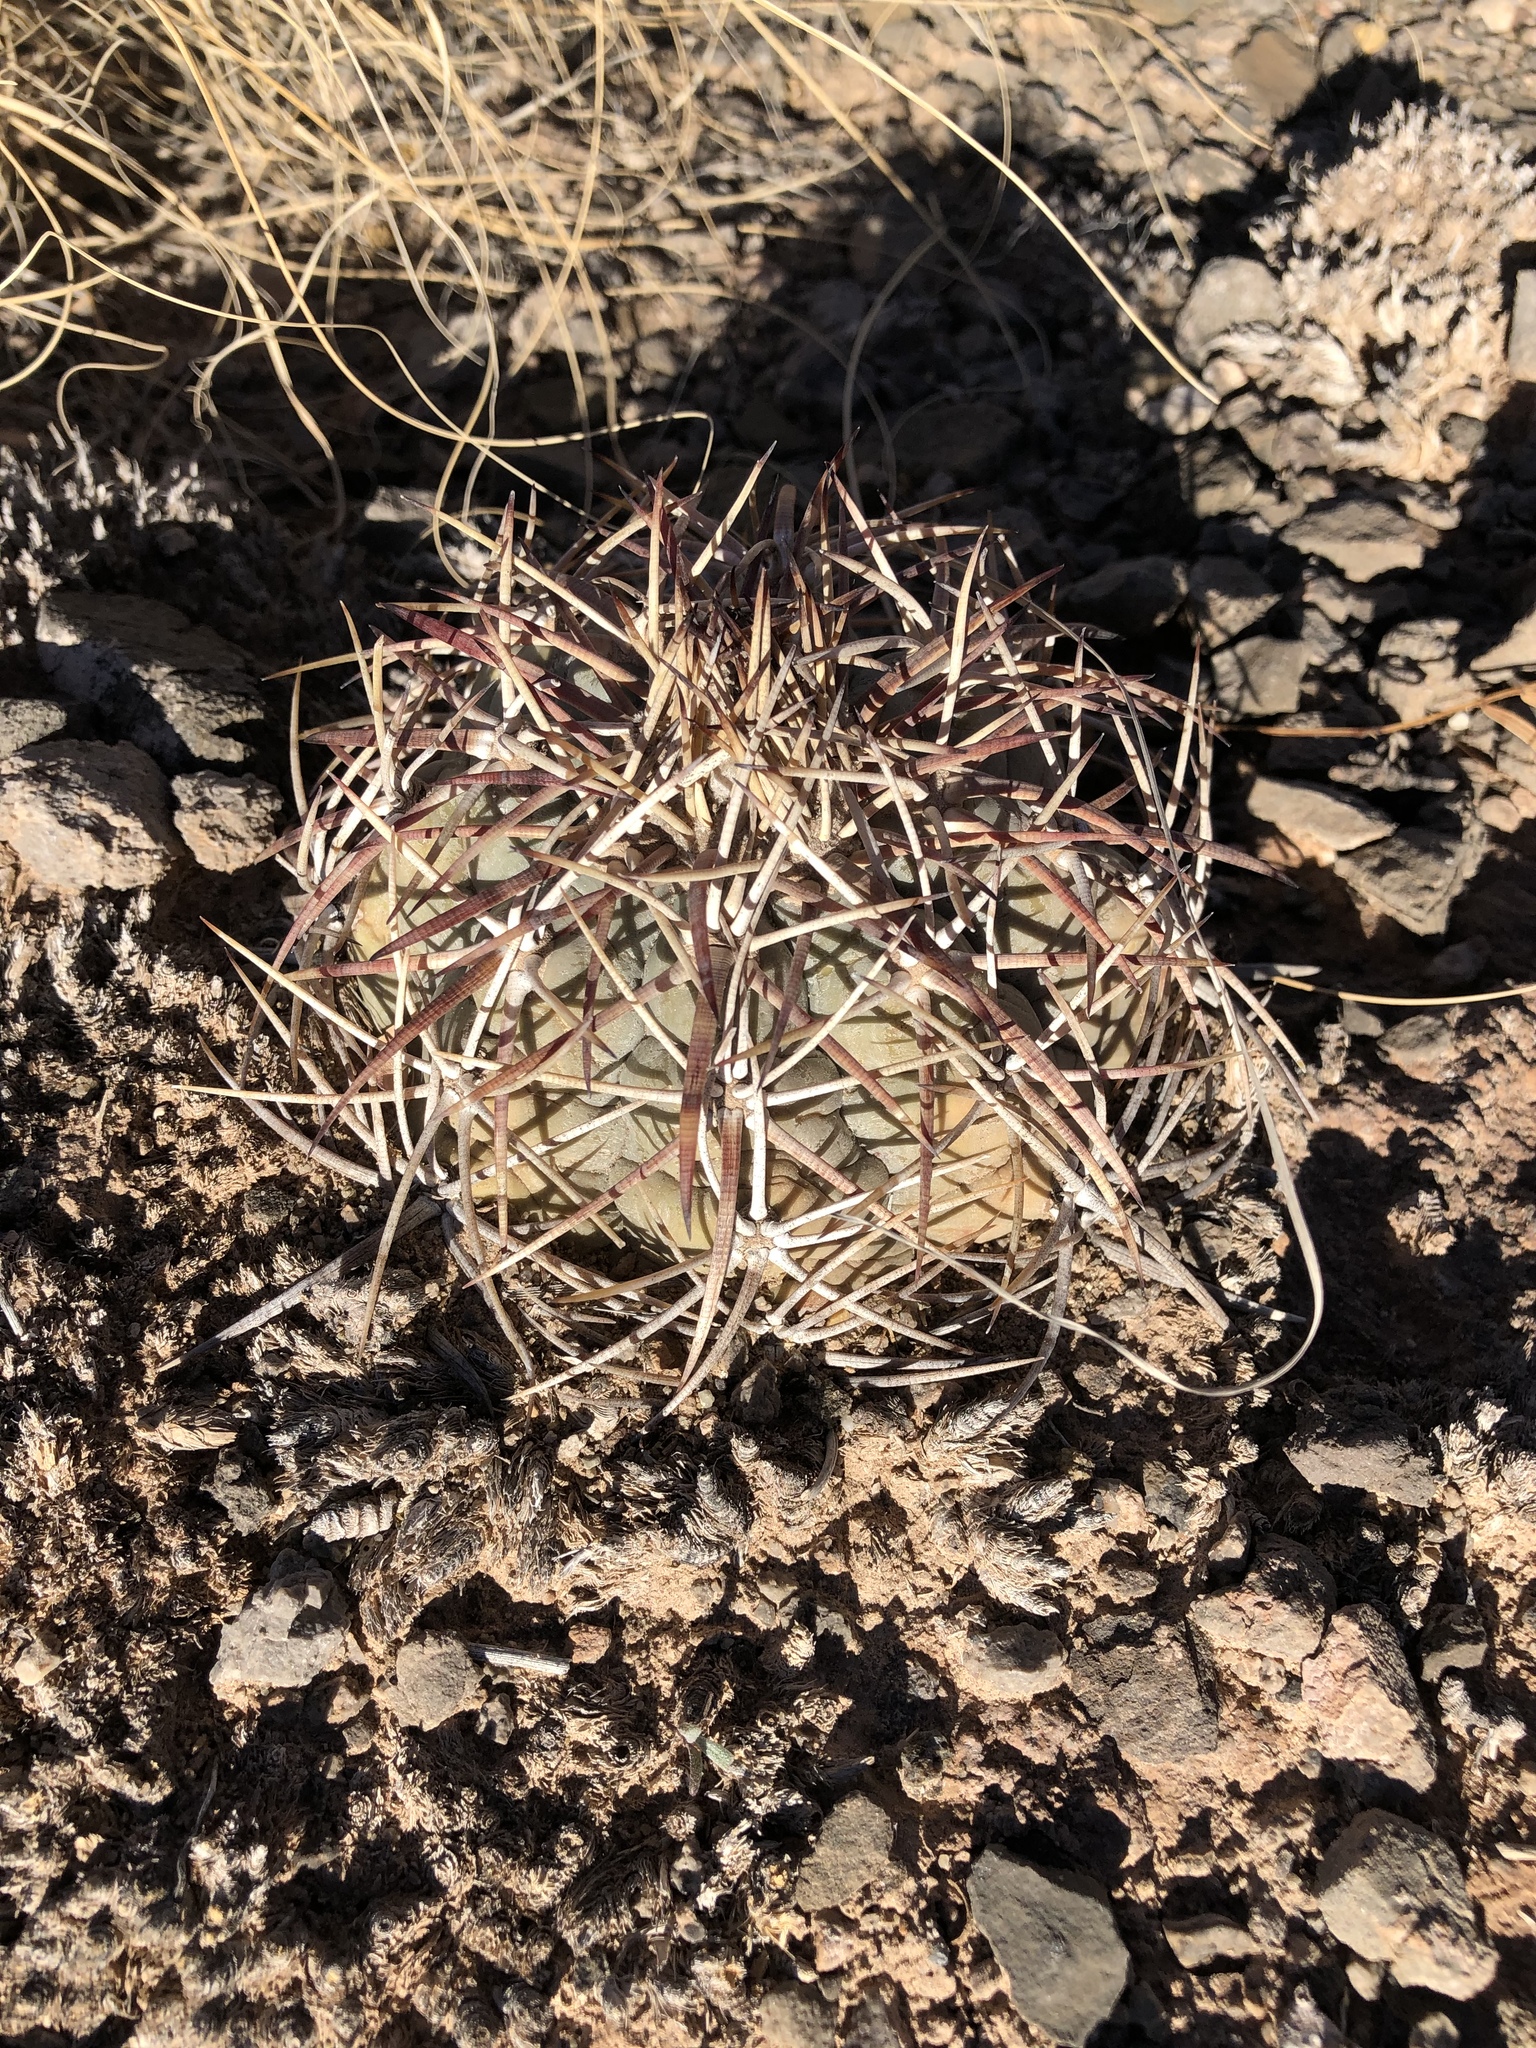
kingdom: Plantae
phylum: Tracheophyta
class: Magnoliopsida
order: Caryophyllales
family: Cactaceae
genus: Echinocactus
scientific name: Echinocactus horizonthalonius
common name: Devilshead
